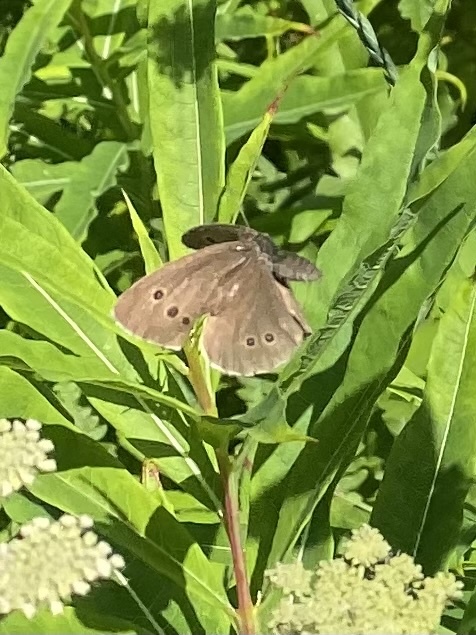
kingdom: Animalia
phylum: Arthropoda
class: Insecta
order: Lepidoptera
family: Nymphalidae
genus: Aphantopus
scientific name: Aphantopus hyperantus
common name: Ringlet
